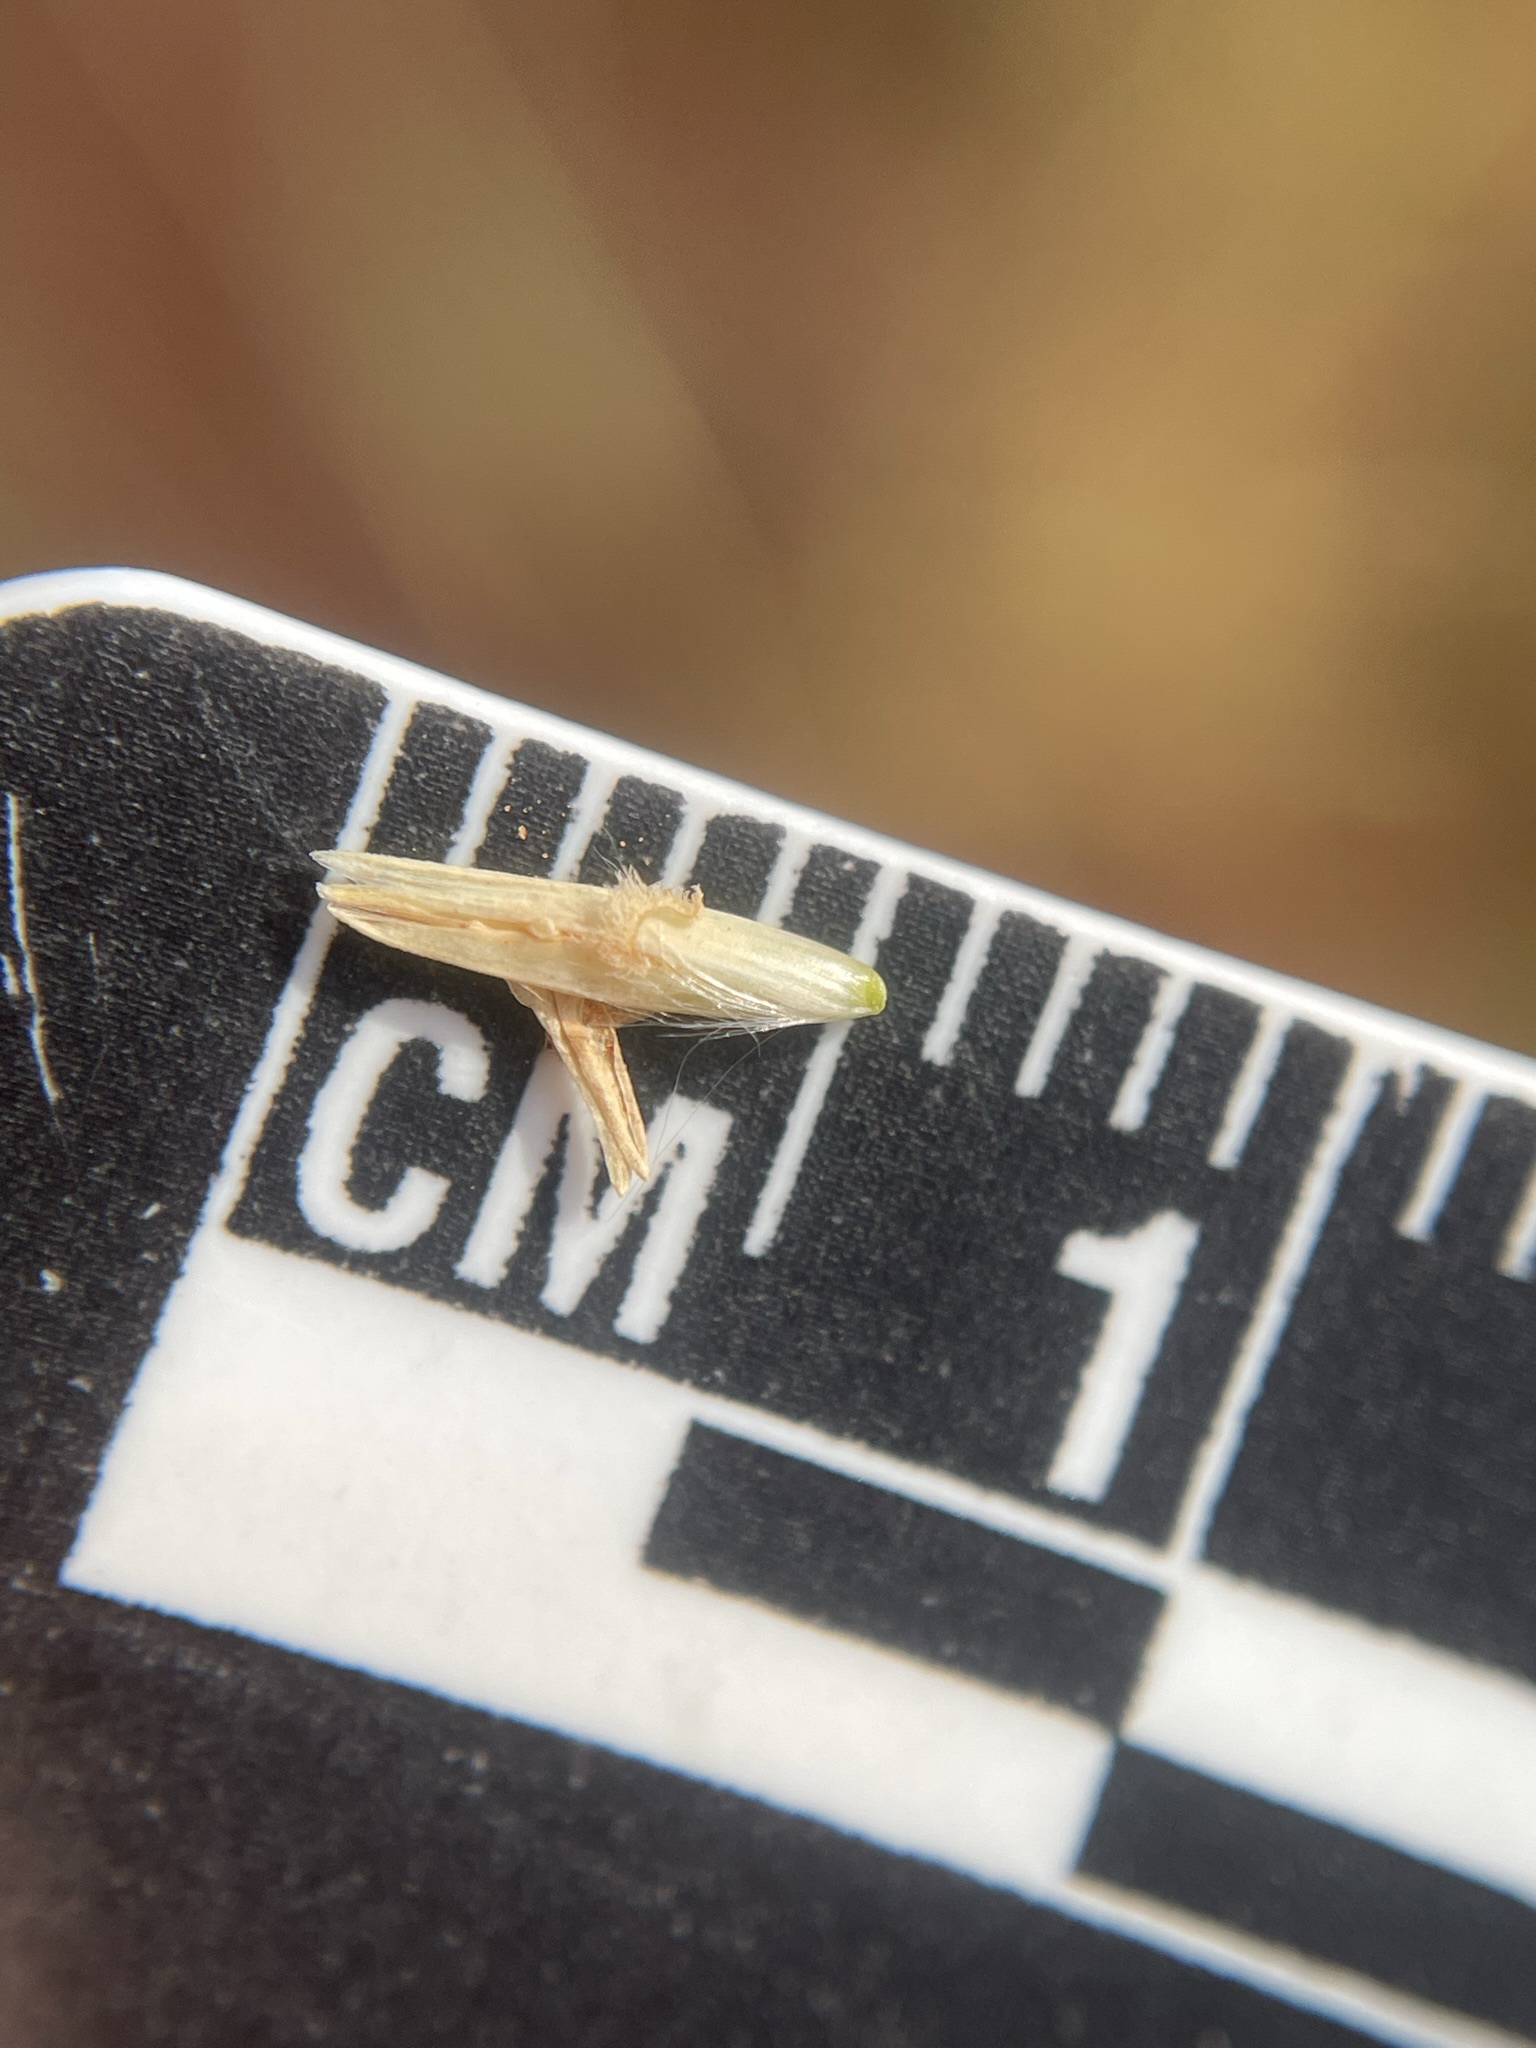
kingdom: Plantae
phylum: Tracheophyta
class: Liliopsida
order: Poales
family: Poaceae
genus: Sporobolus
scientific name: Sporobolus rigidus
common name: Prairie sandreed
